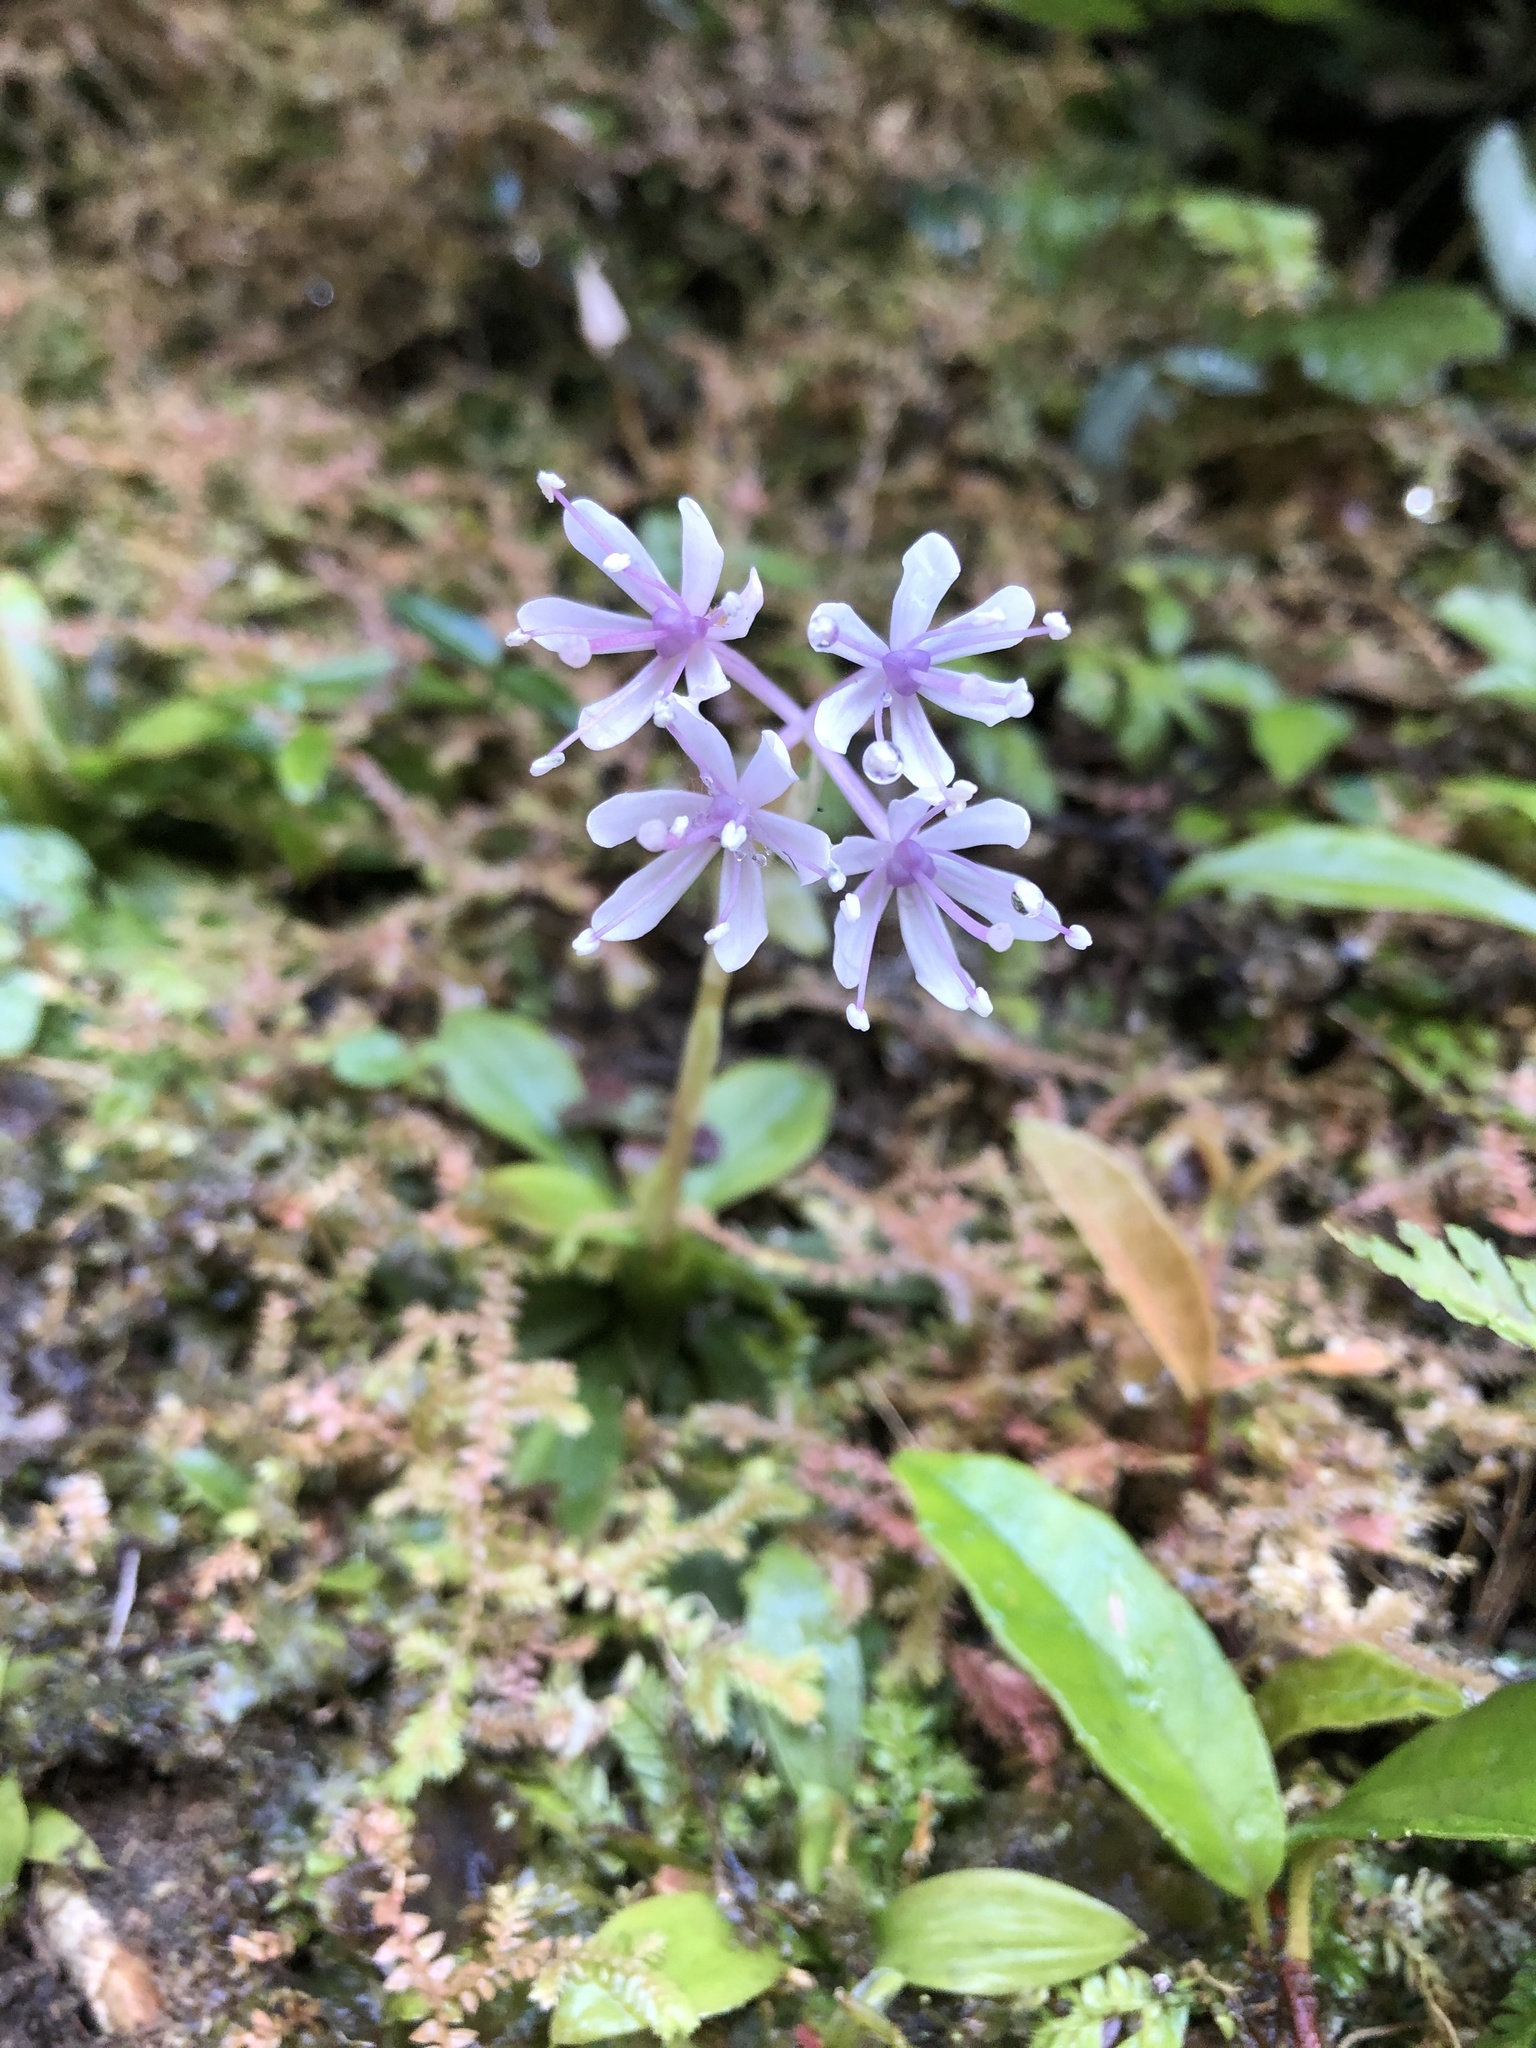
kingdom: Plantae
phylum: Tracheophyta
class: Liliopsida
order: Liliales
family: Melanthiaceae
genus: Helonias
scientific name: Helonias umbellata
